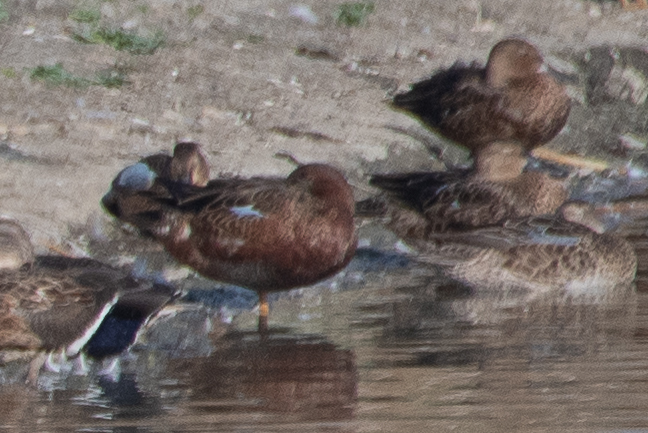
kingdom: Animalia
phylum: Chordata
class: Aves
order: Anseriformes
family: Anatidae
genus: Spatula
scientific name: Spatula cyanoptera
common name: Cinnamon teal
